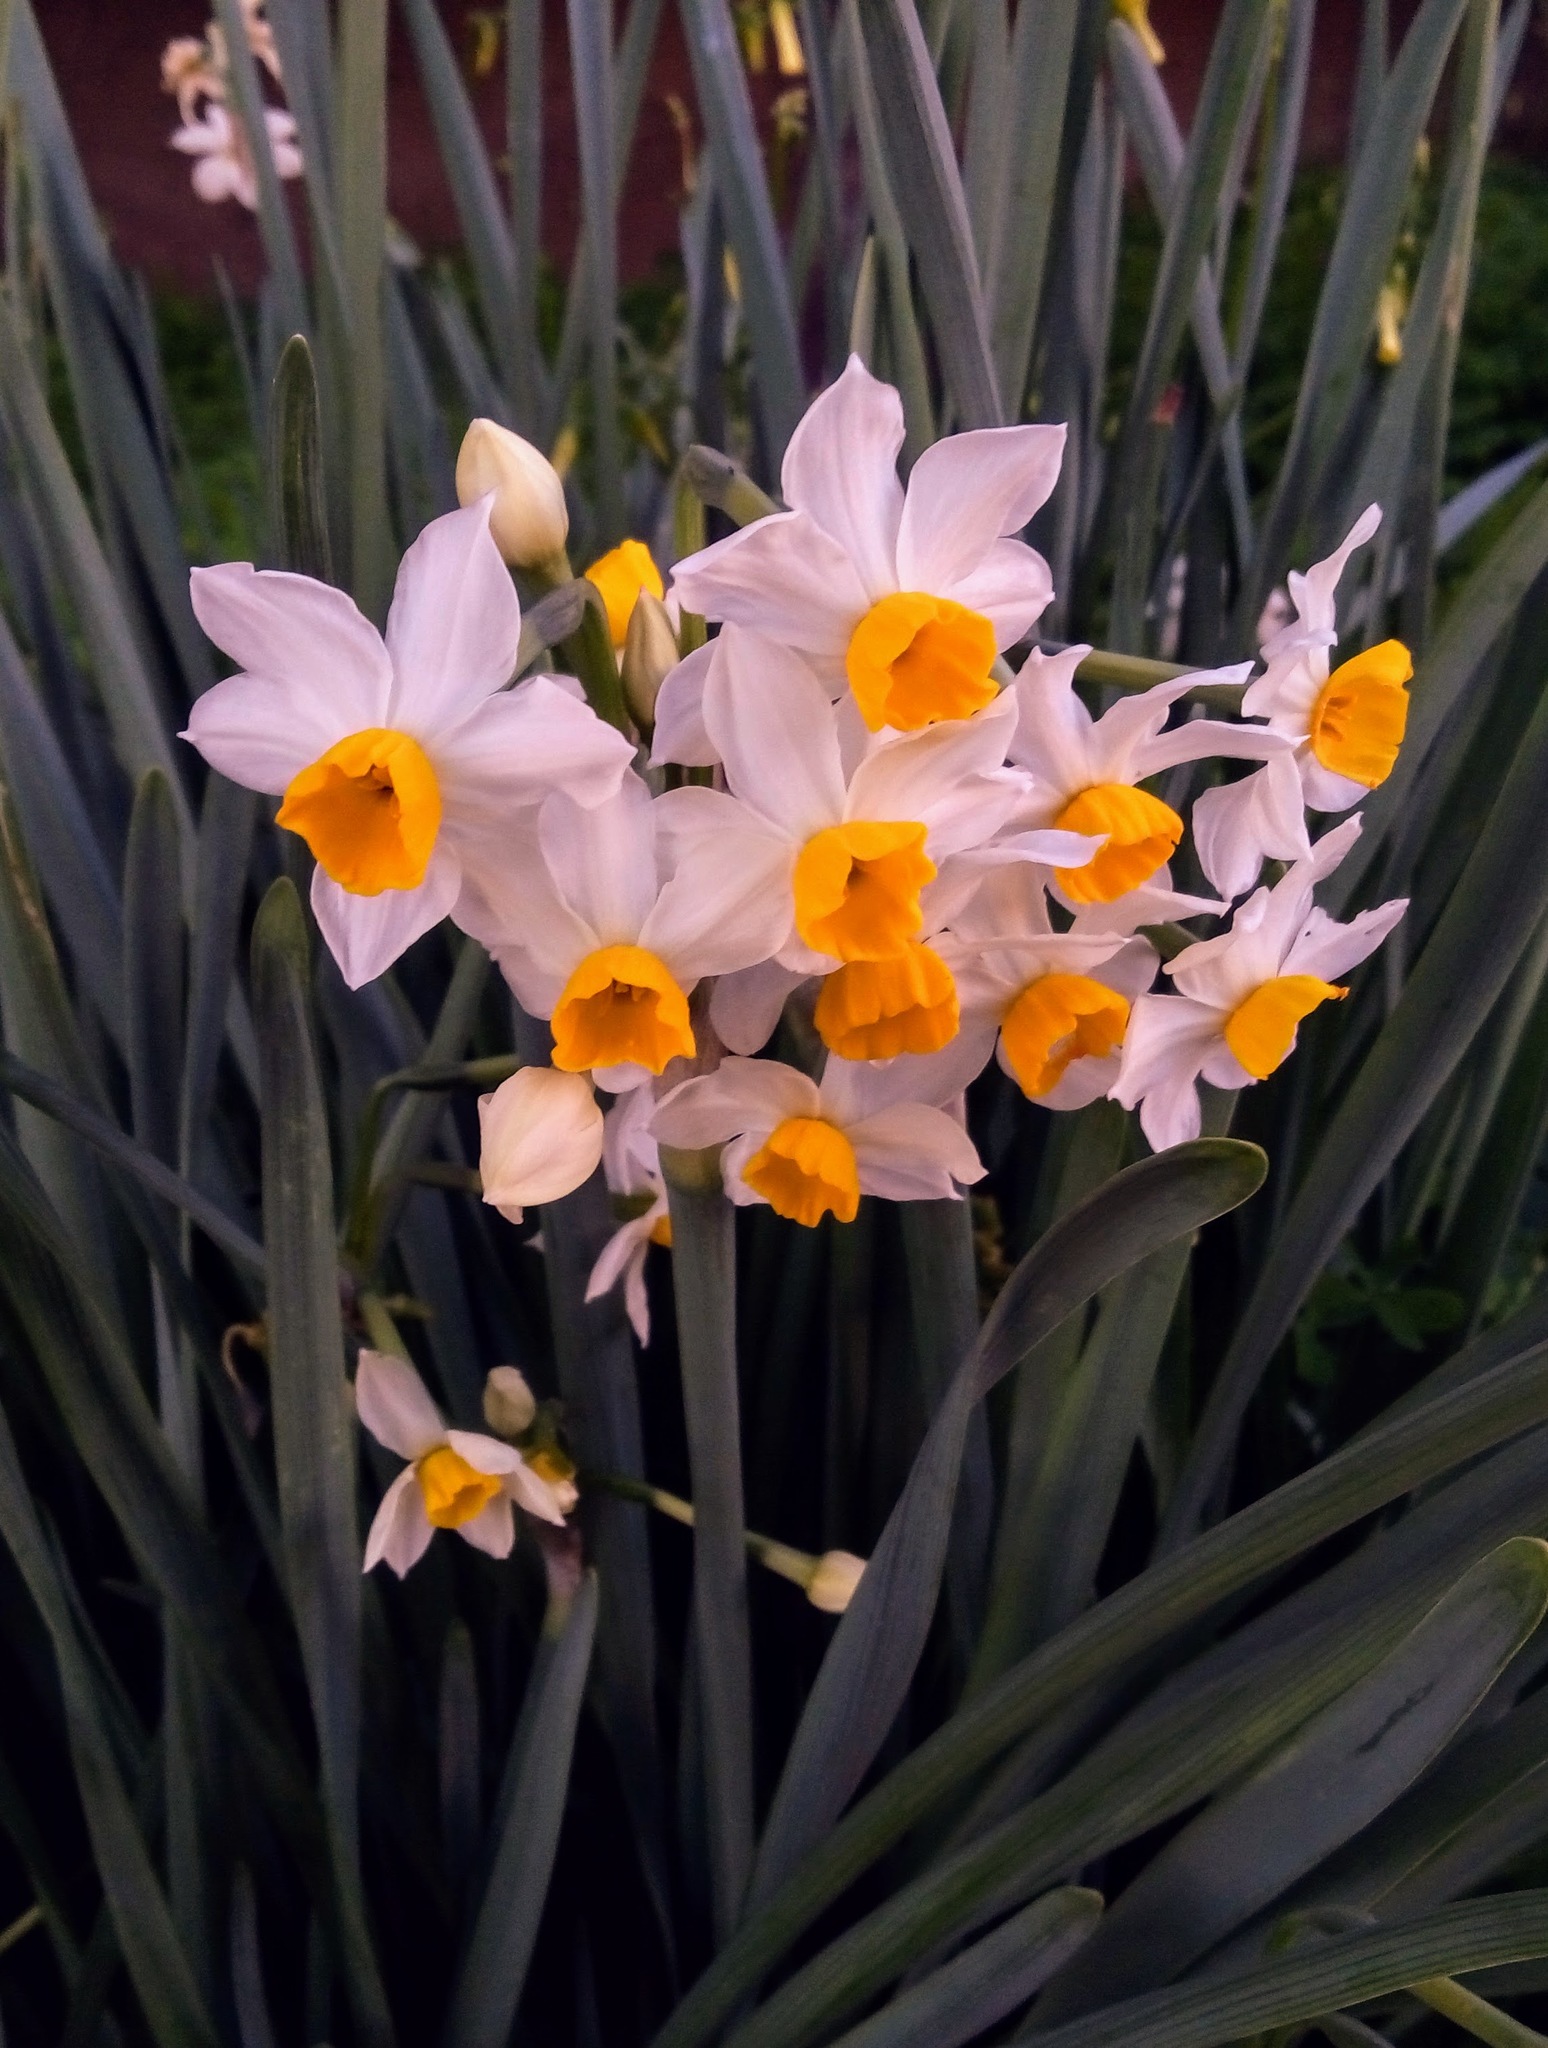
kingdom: Plantae
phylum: Tracheophyta
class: Liliopsida
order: Asparagales
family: Amaryllidaceae
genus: Narcissus
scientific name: Narcissus tazetta
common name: Bunch-flowered daffodil
